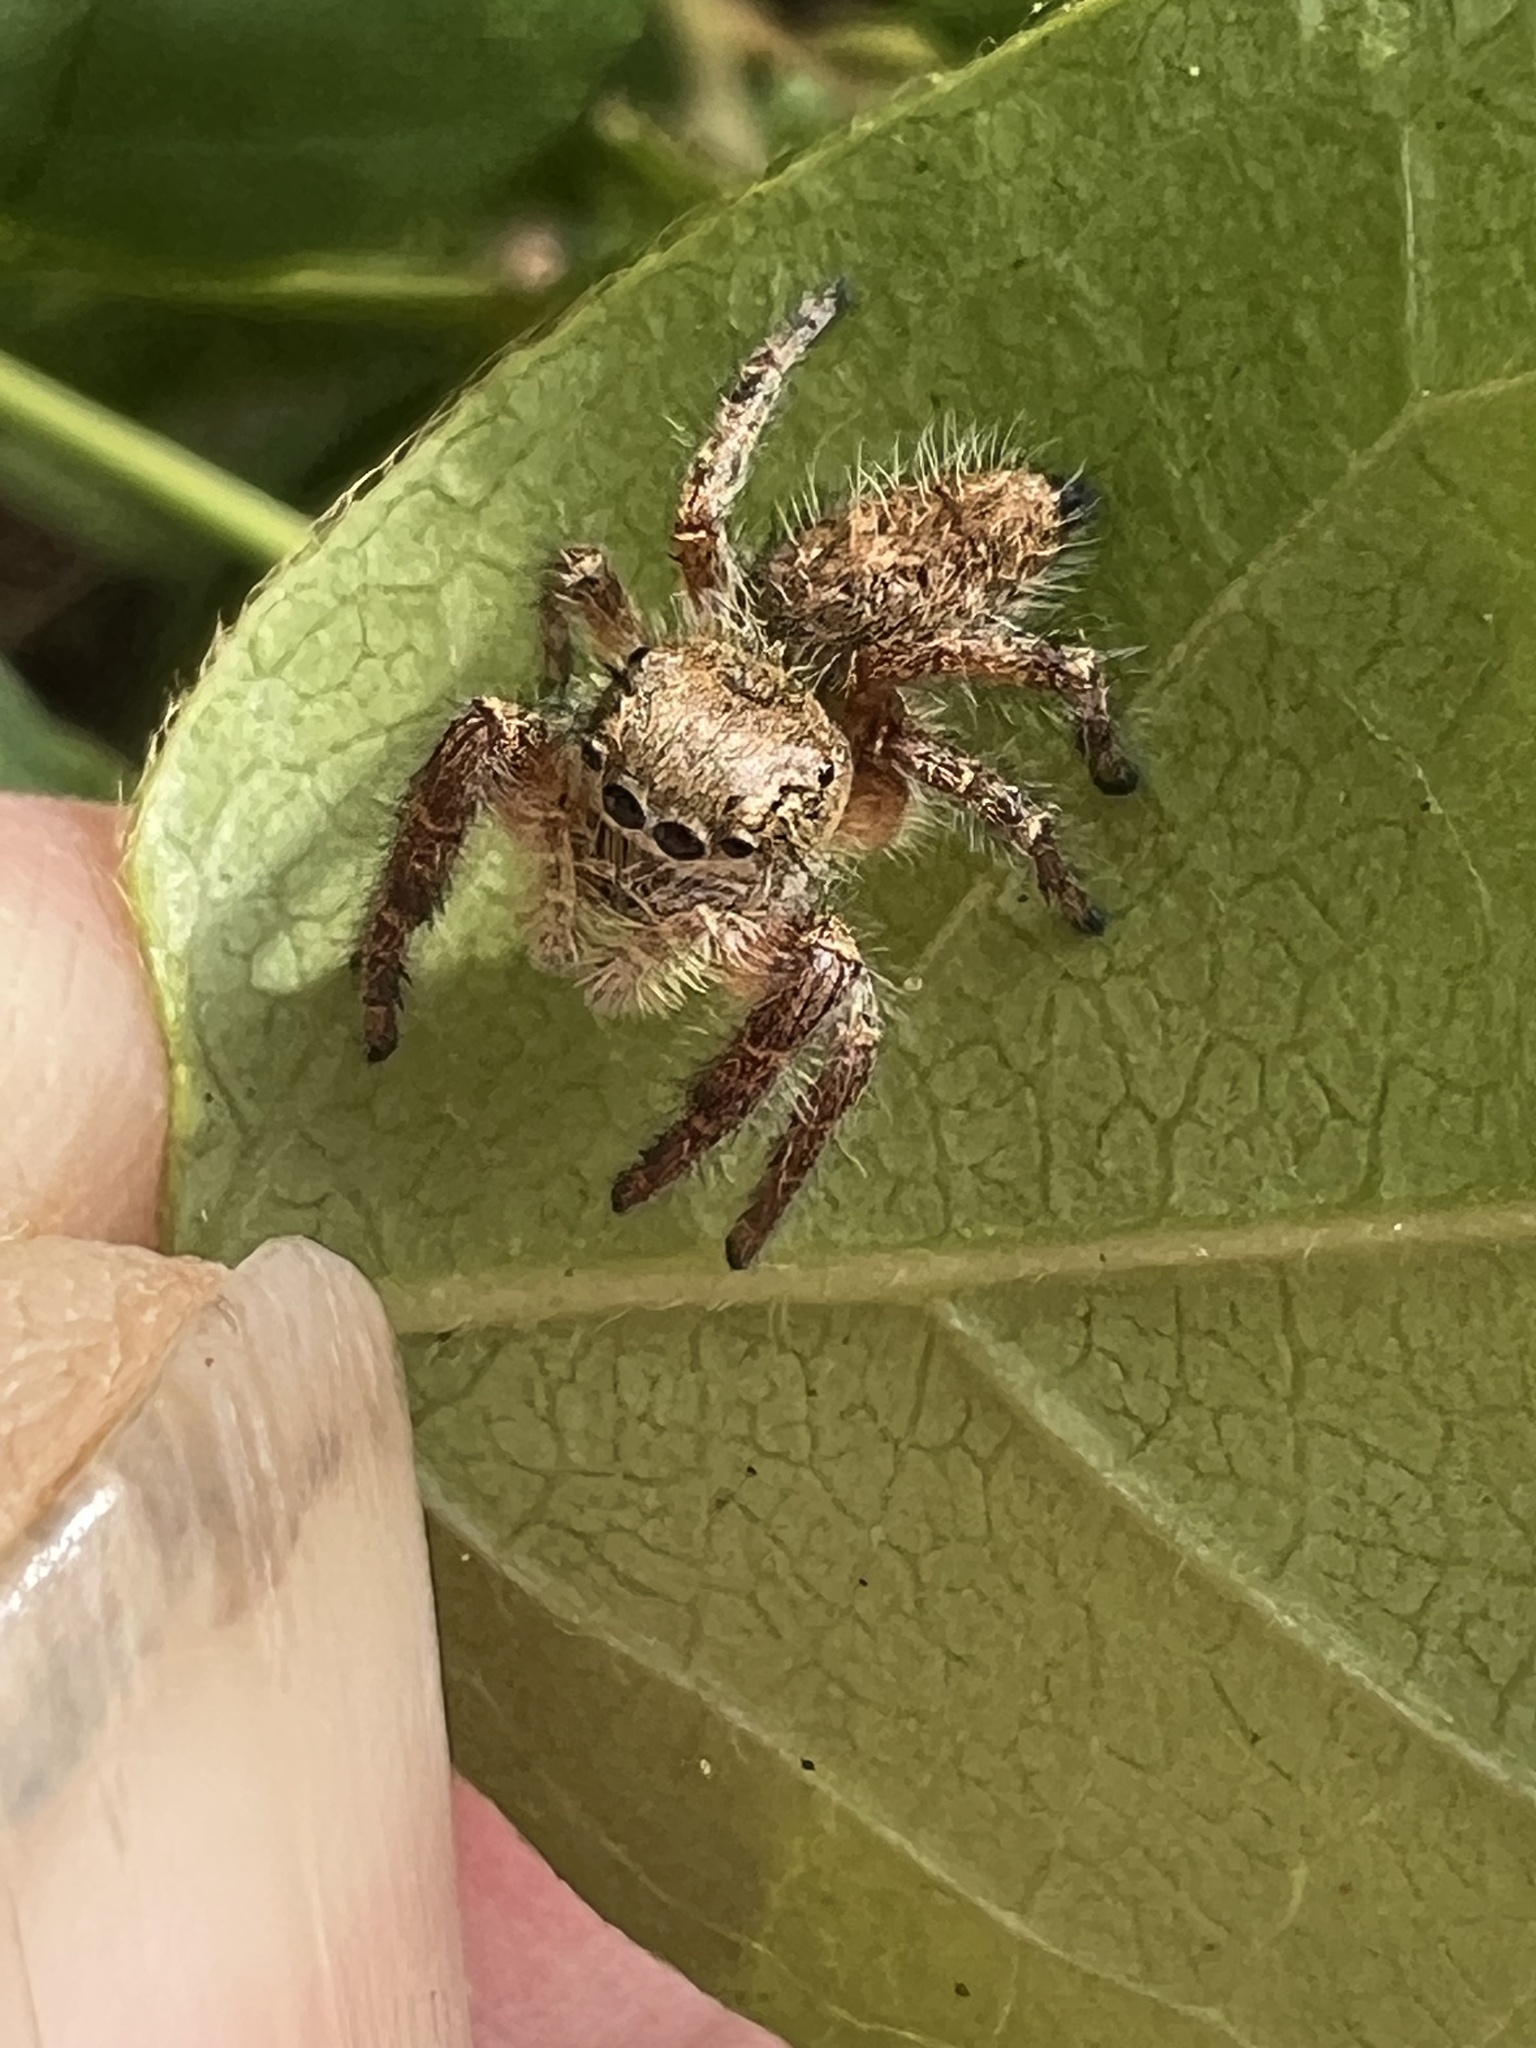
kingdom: Animalia
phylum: Arthropoda
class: Arachnida
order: Araneae
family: Salticidae
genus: Phidippus
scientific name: Phidippus princeps
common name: Grayish jumping spider
